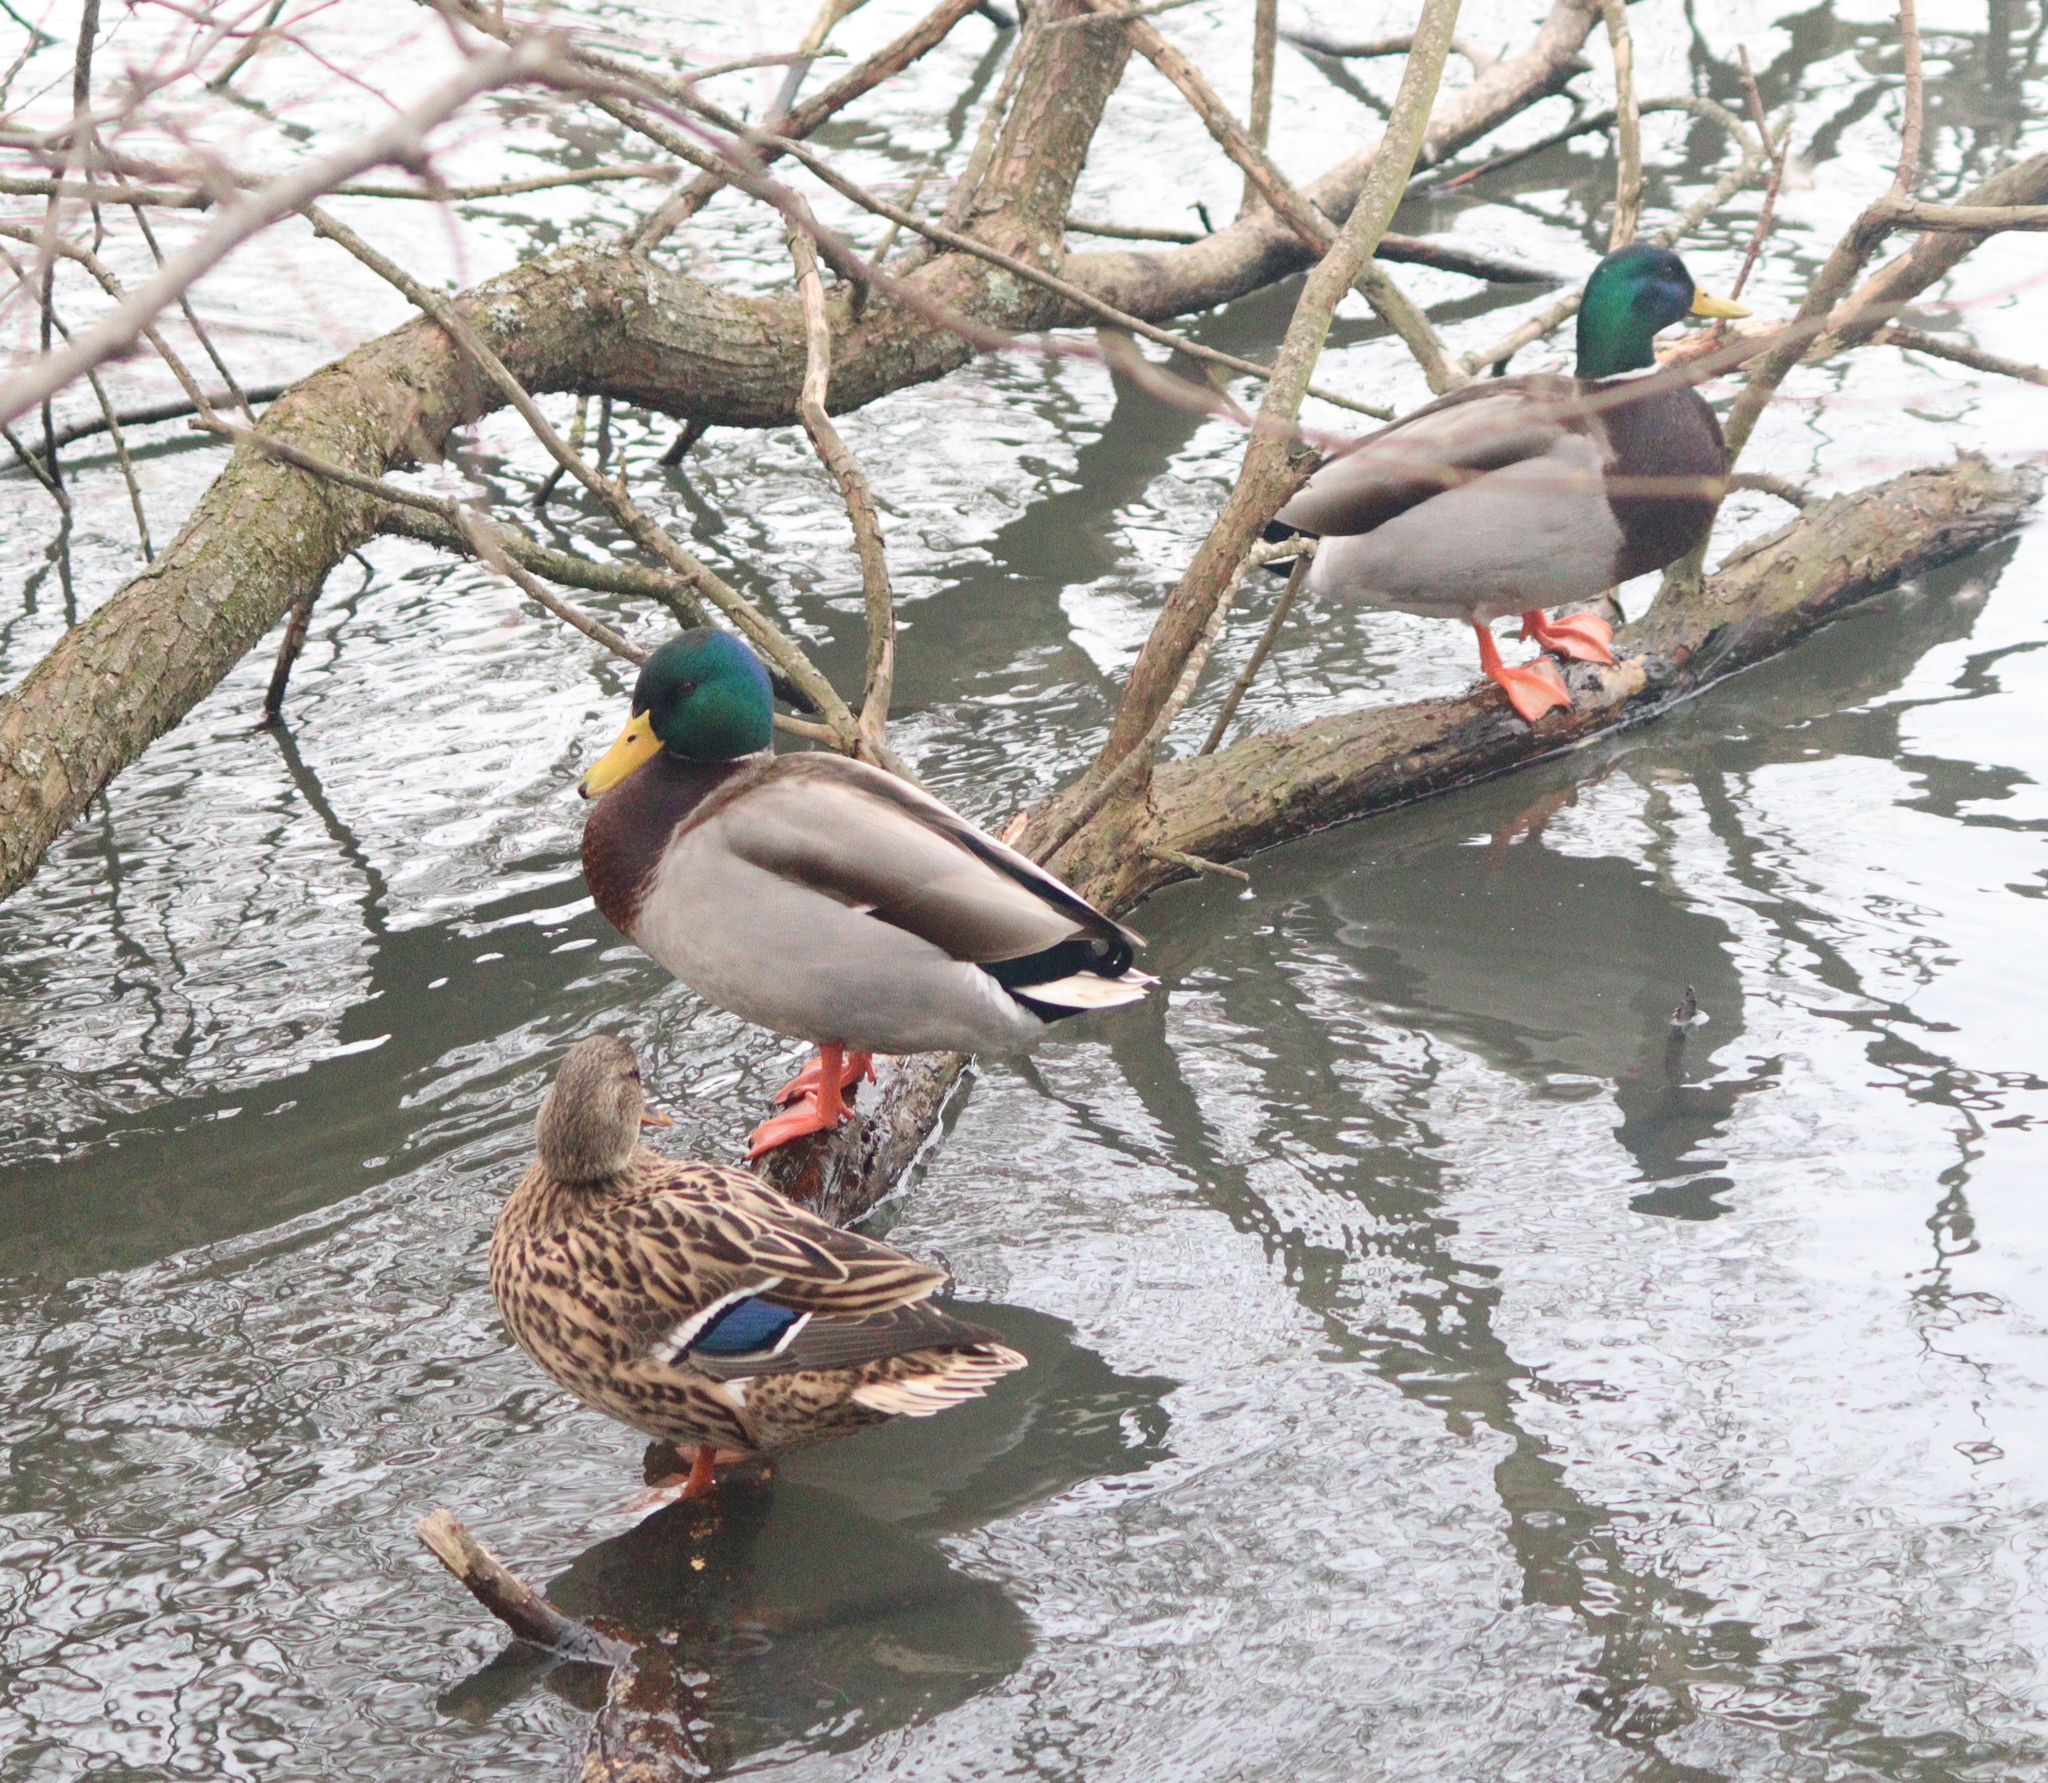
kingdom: Animalia
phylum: Chordata
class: Aves
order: Anseriformes
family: Anatidae
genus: Anas
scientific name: Anas platyrhynchos
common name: Mallard
